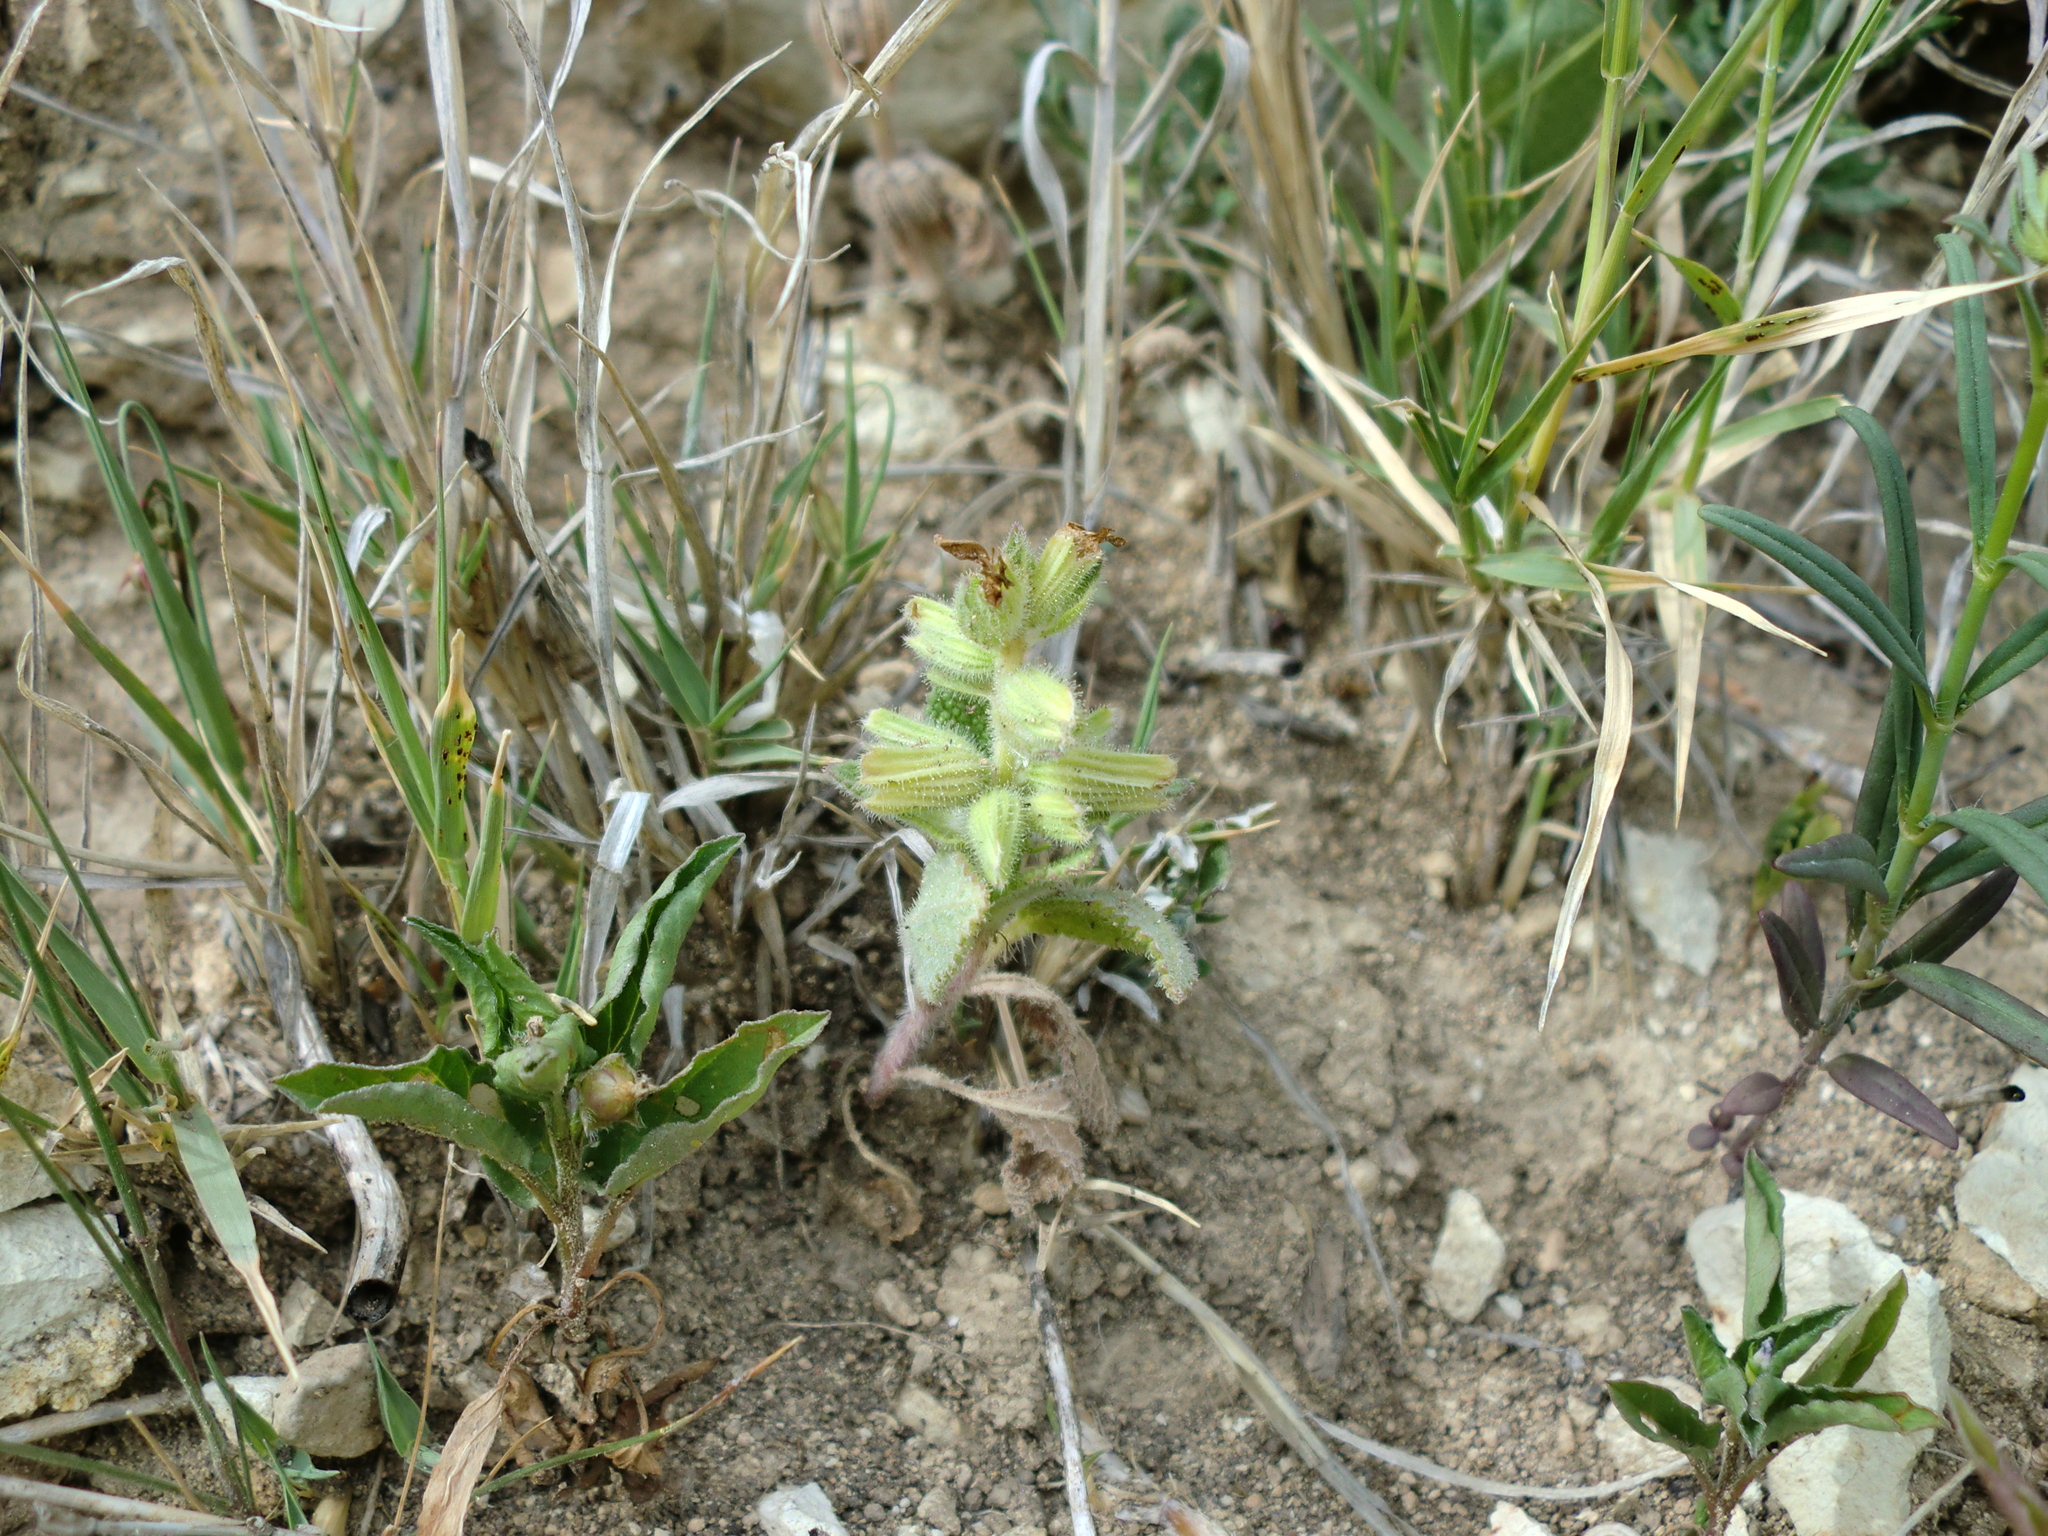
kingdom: Plantae
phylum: Tracheophyta
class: Magnoliopsida
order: Lamiales
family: Lamiaceae
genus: Salvia
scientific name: Salvia viridis
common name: Annual clary
